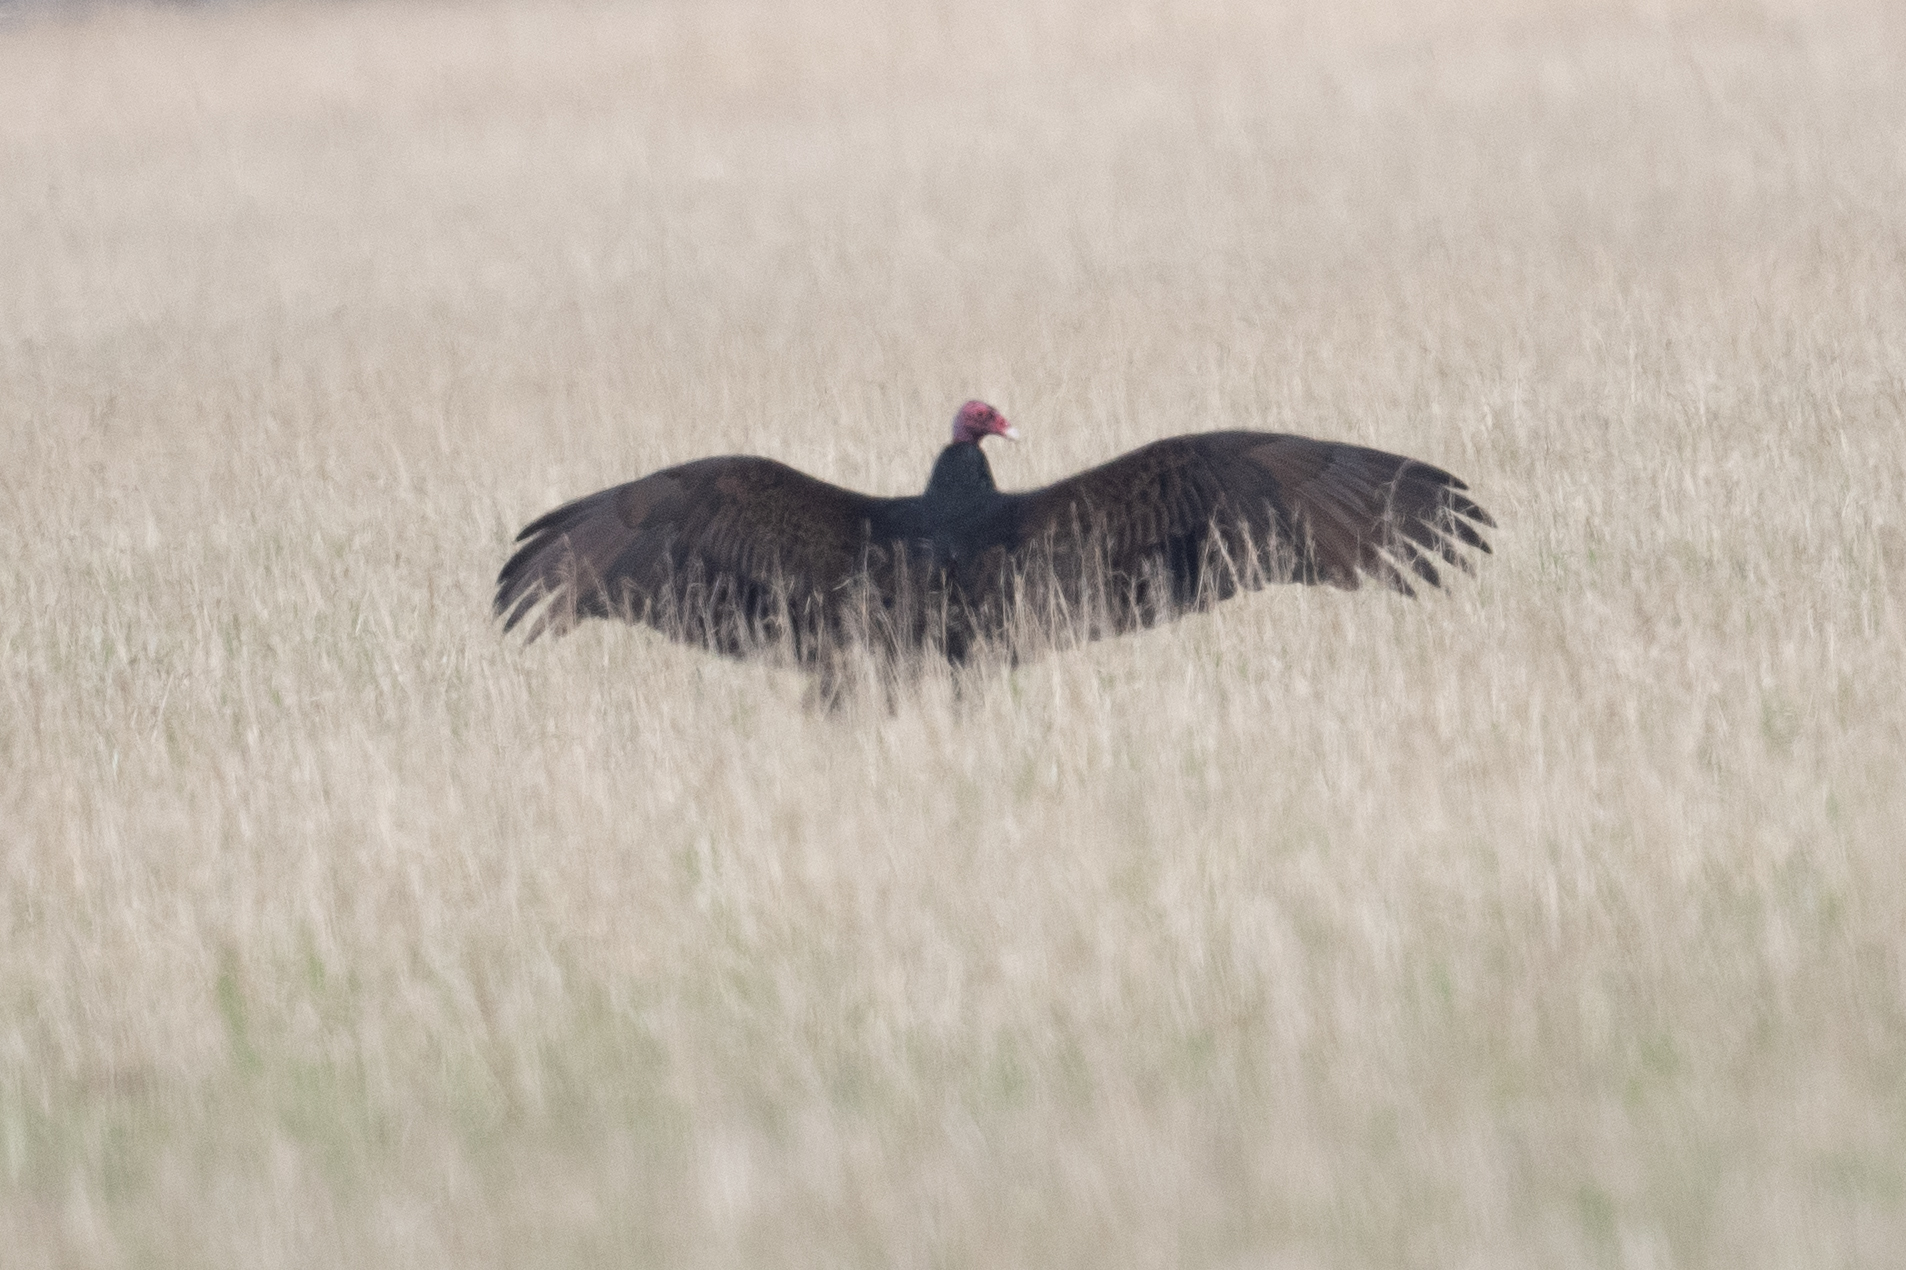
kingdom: Animalia
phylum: Chordata
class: Aves
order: Accipitriformes
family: Cathartidae
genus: Cathartes
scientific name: Cathartes aura
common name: Turkey vulture
